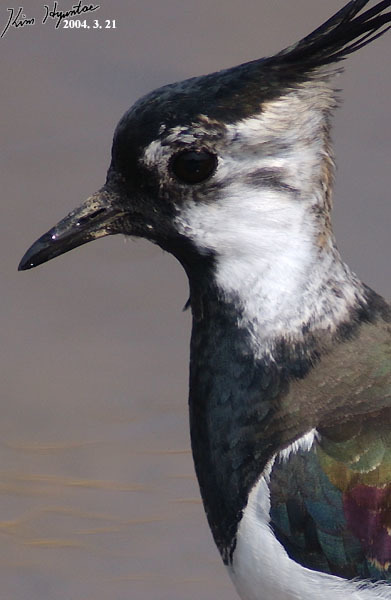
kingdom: Animalia
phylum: Chordata
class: Aves
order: Charadriiformes
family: Charadriidae
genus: Vanellus
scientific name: Vanellus vanellus
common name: Northern lapwing
